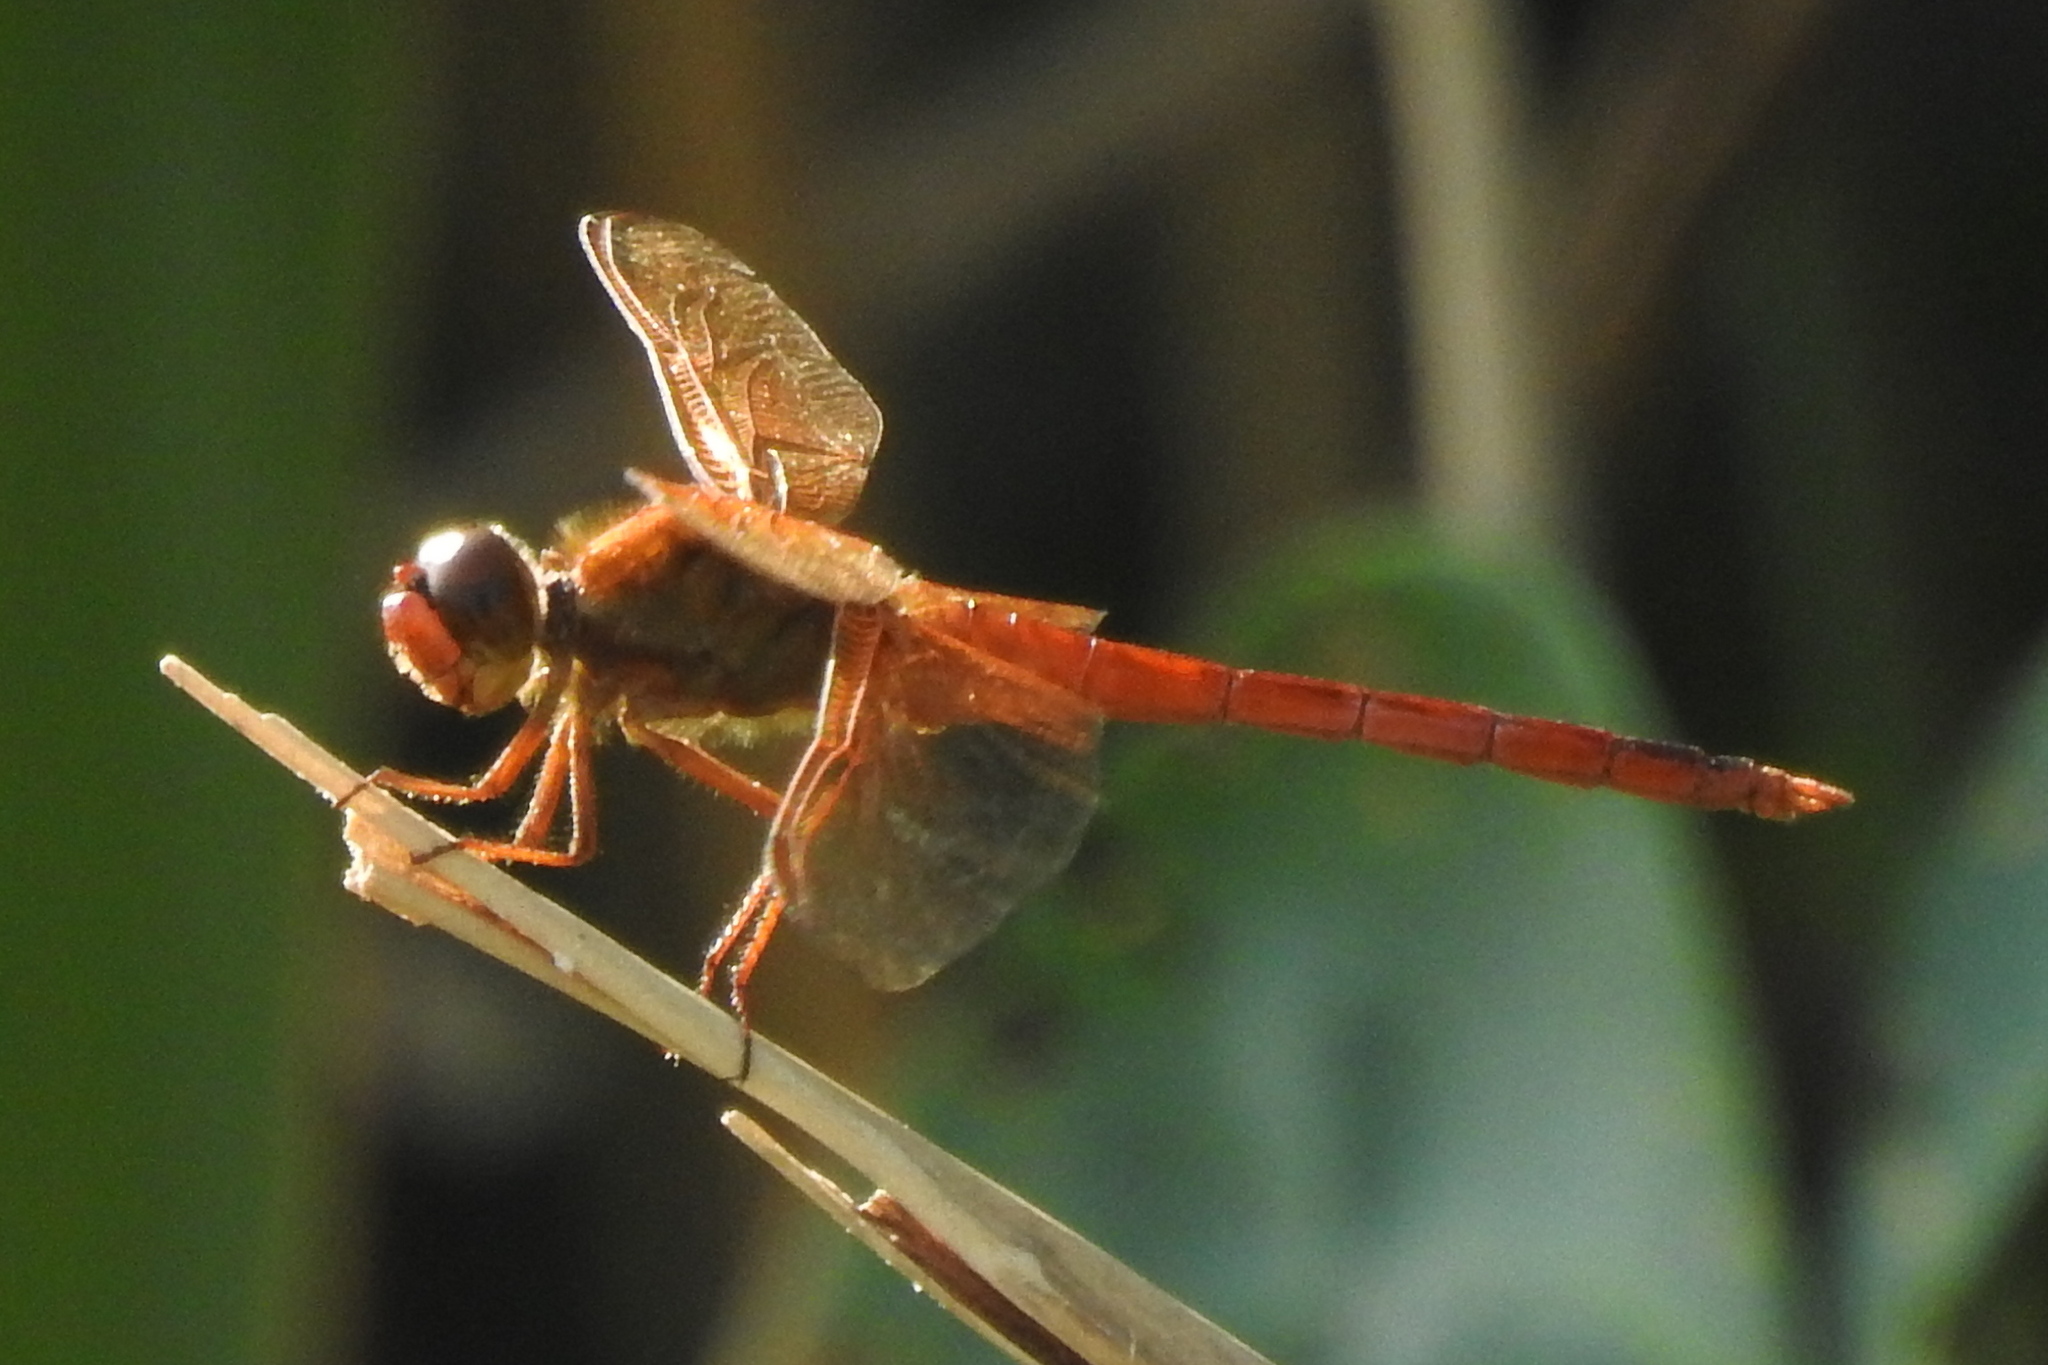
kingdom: Animalia
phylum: Arthropoda
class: Insecta
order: Odonata
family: Libellulidae
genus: Libellula
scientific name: Libellula needhami
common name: Needham's skimmer
